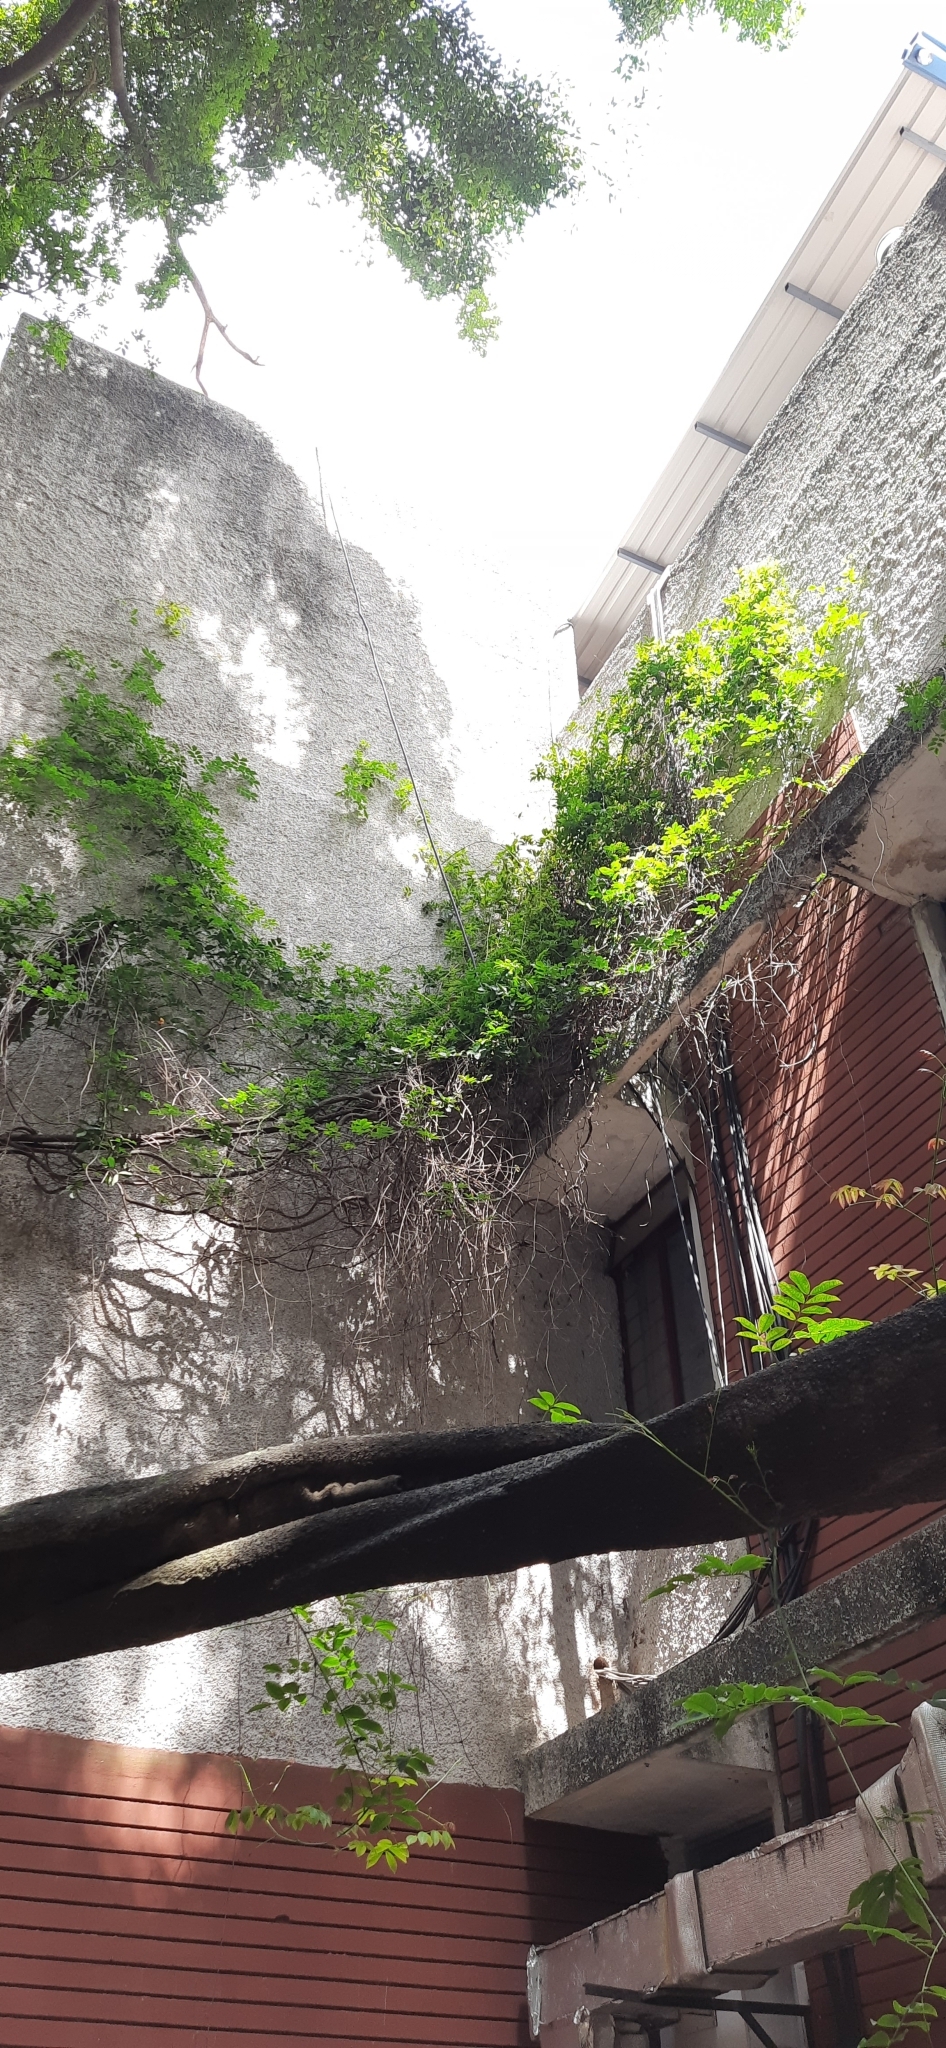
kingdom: Plantae
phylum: Tracheophyta
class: Magnoliopsida
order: Fabales
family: Fabaceae
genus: Entada
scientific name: Entada rheedei
